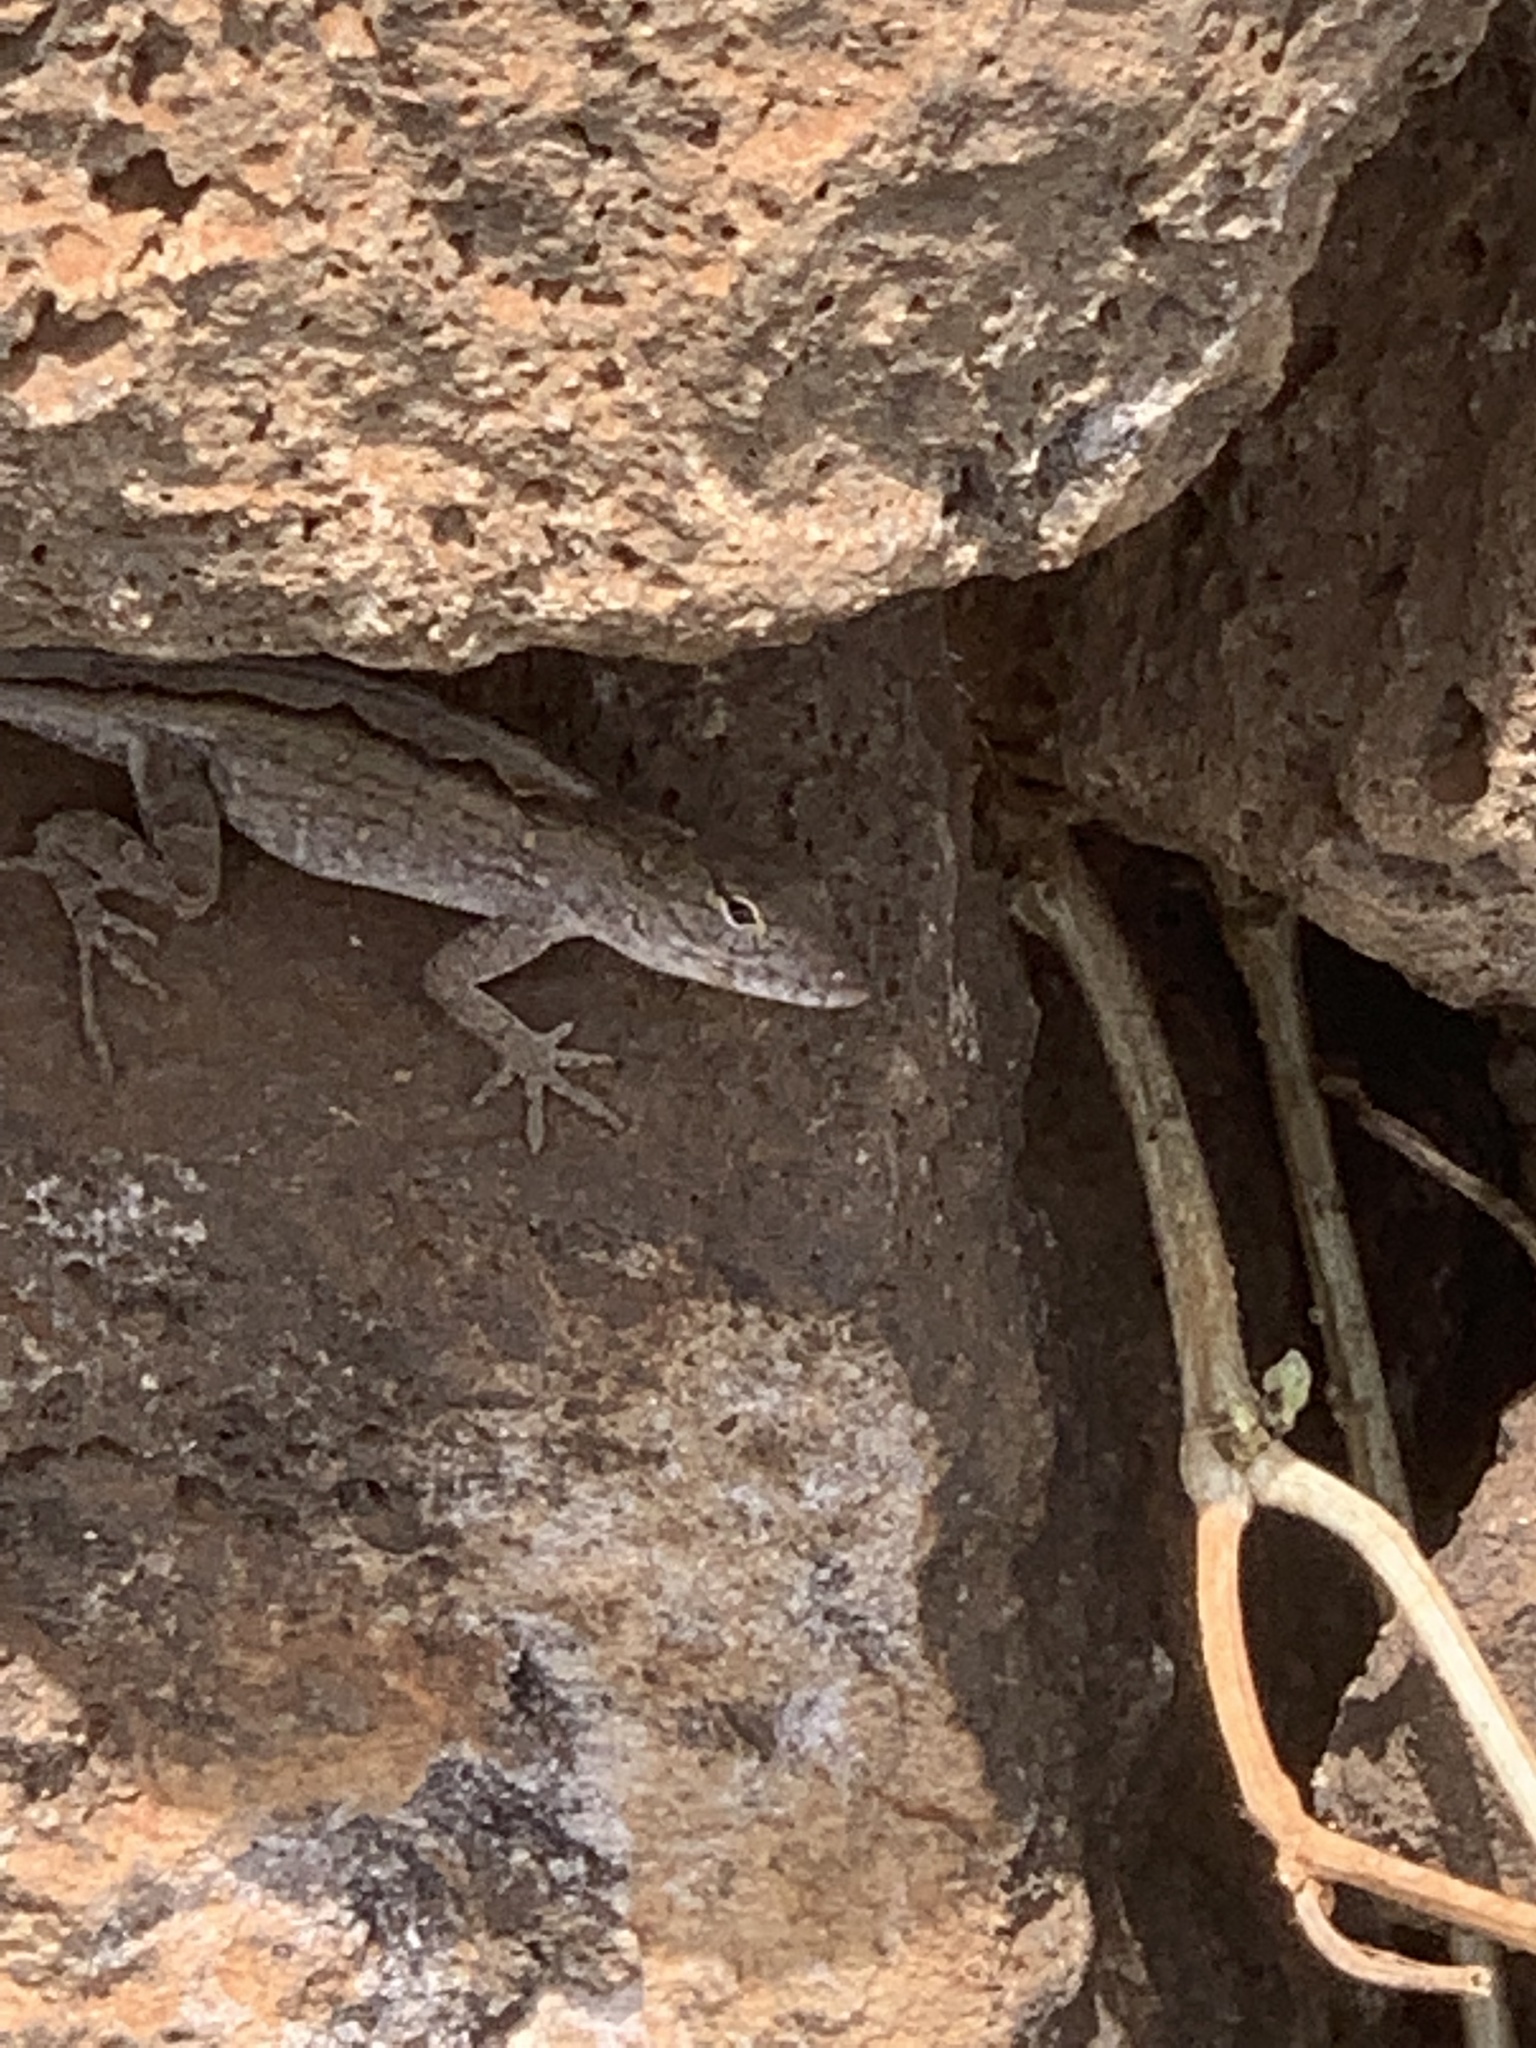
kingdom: Animalia
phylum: Chordata
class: Squamata
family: Dactyloidae
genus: Anolis
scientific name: Anolis sagrei
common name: Brown anole
